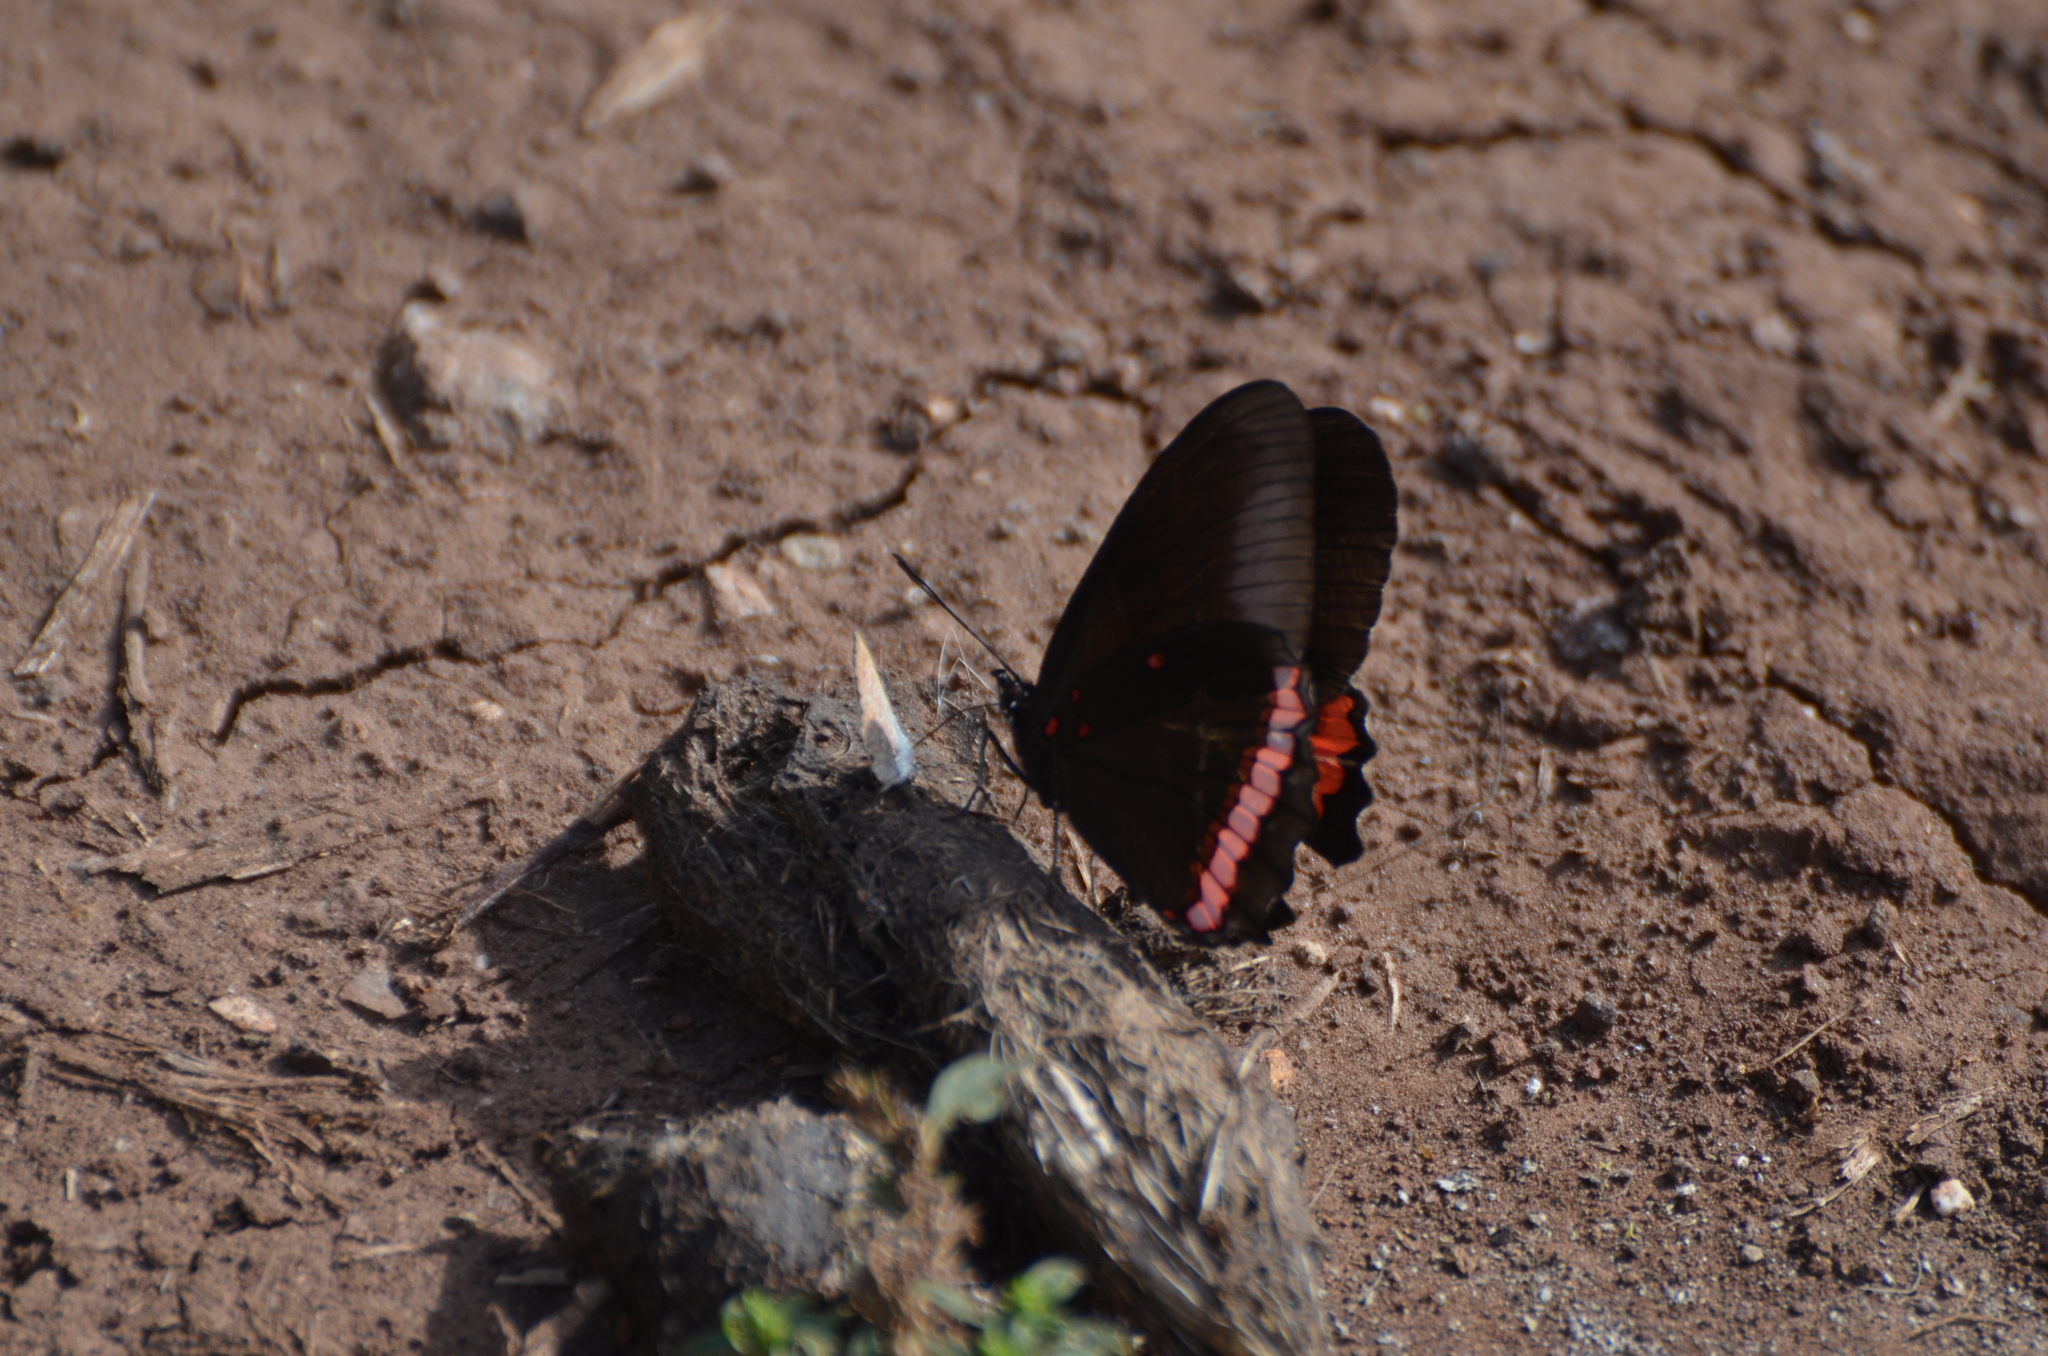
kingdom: Animalia
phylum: Arthropoda
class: Insecta
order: Lepidoptera
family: Nymphalidae
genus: Biblis
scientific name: Biblis aganisa
